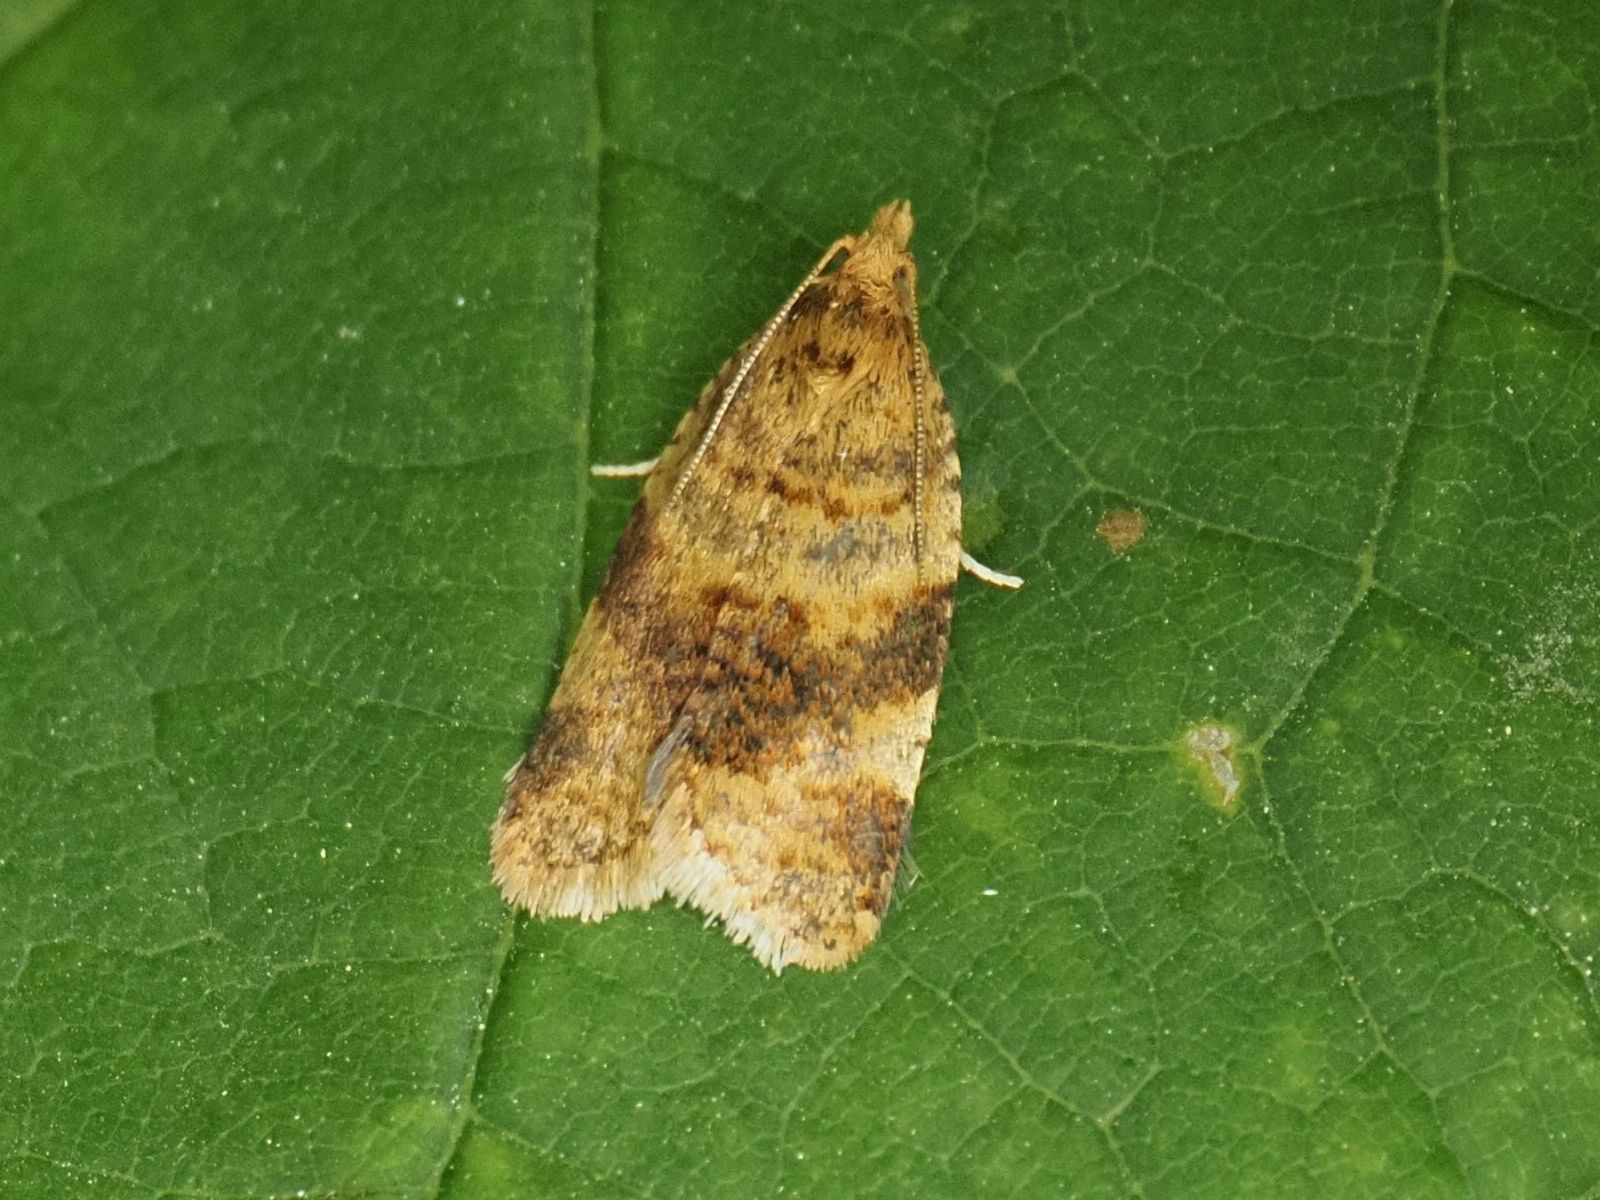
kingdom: Animalia
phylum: Arthropoda
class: Insecta
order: Lepidoptera
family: Tortricidae
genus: Epagoge
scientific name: Epagoge grotiana
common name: Brown-barred twist
